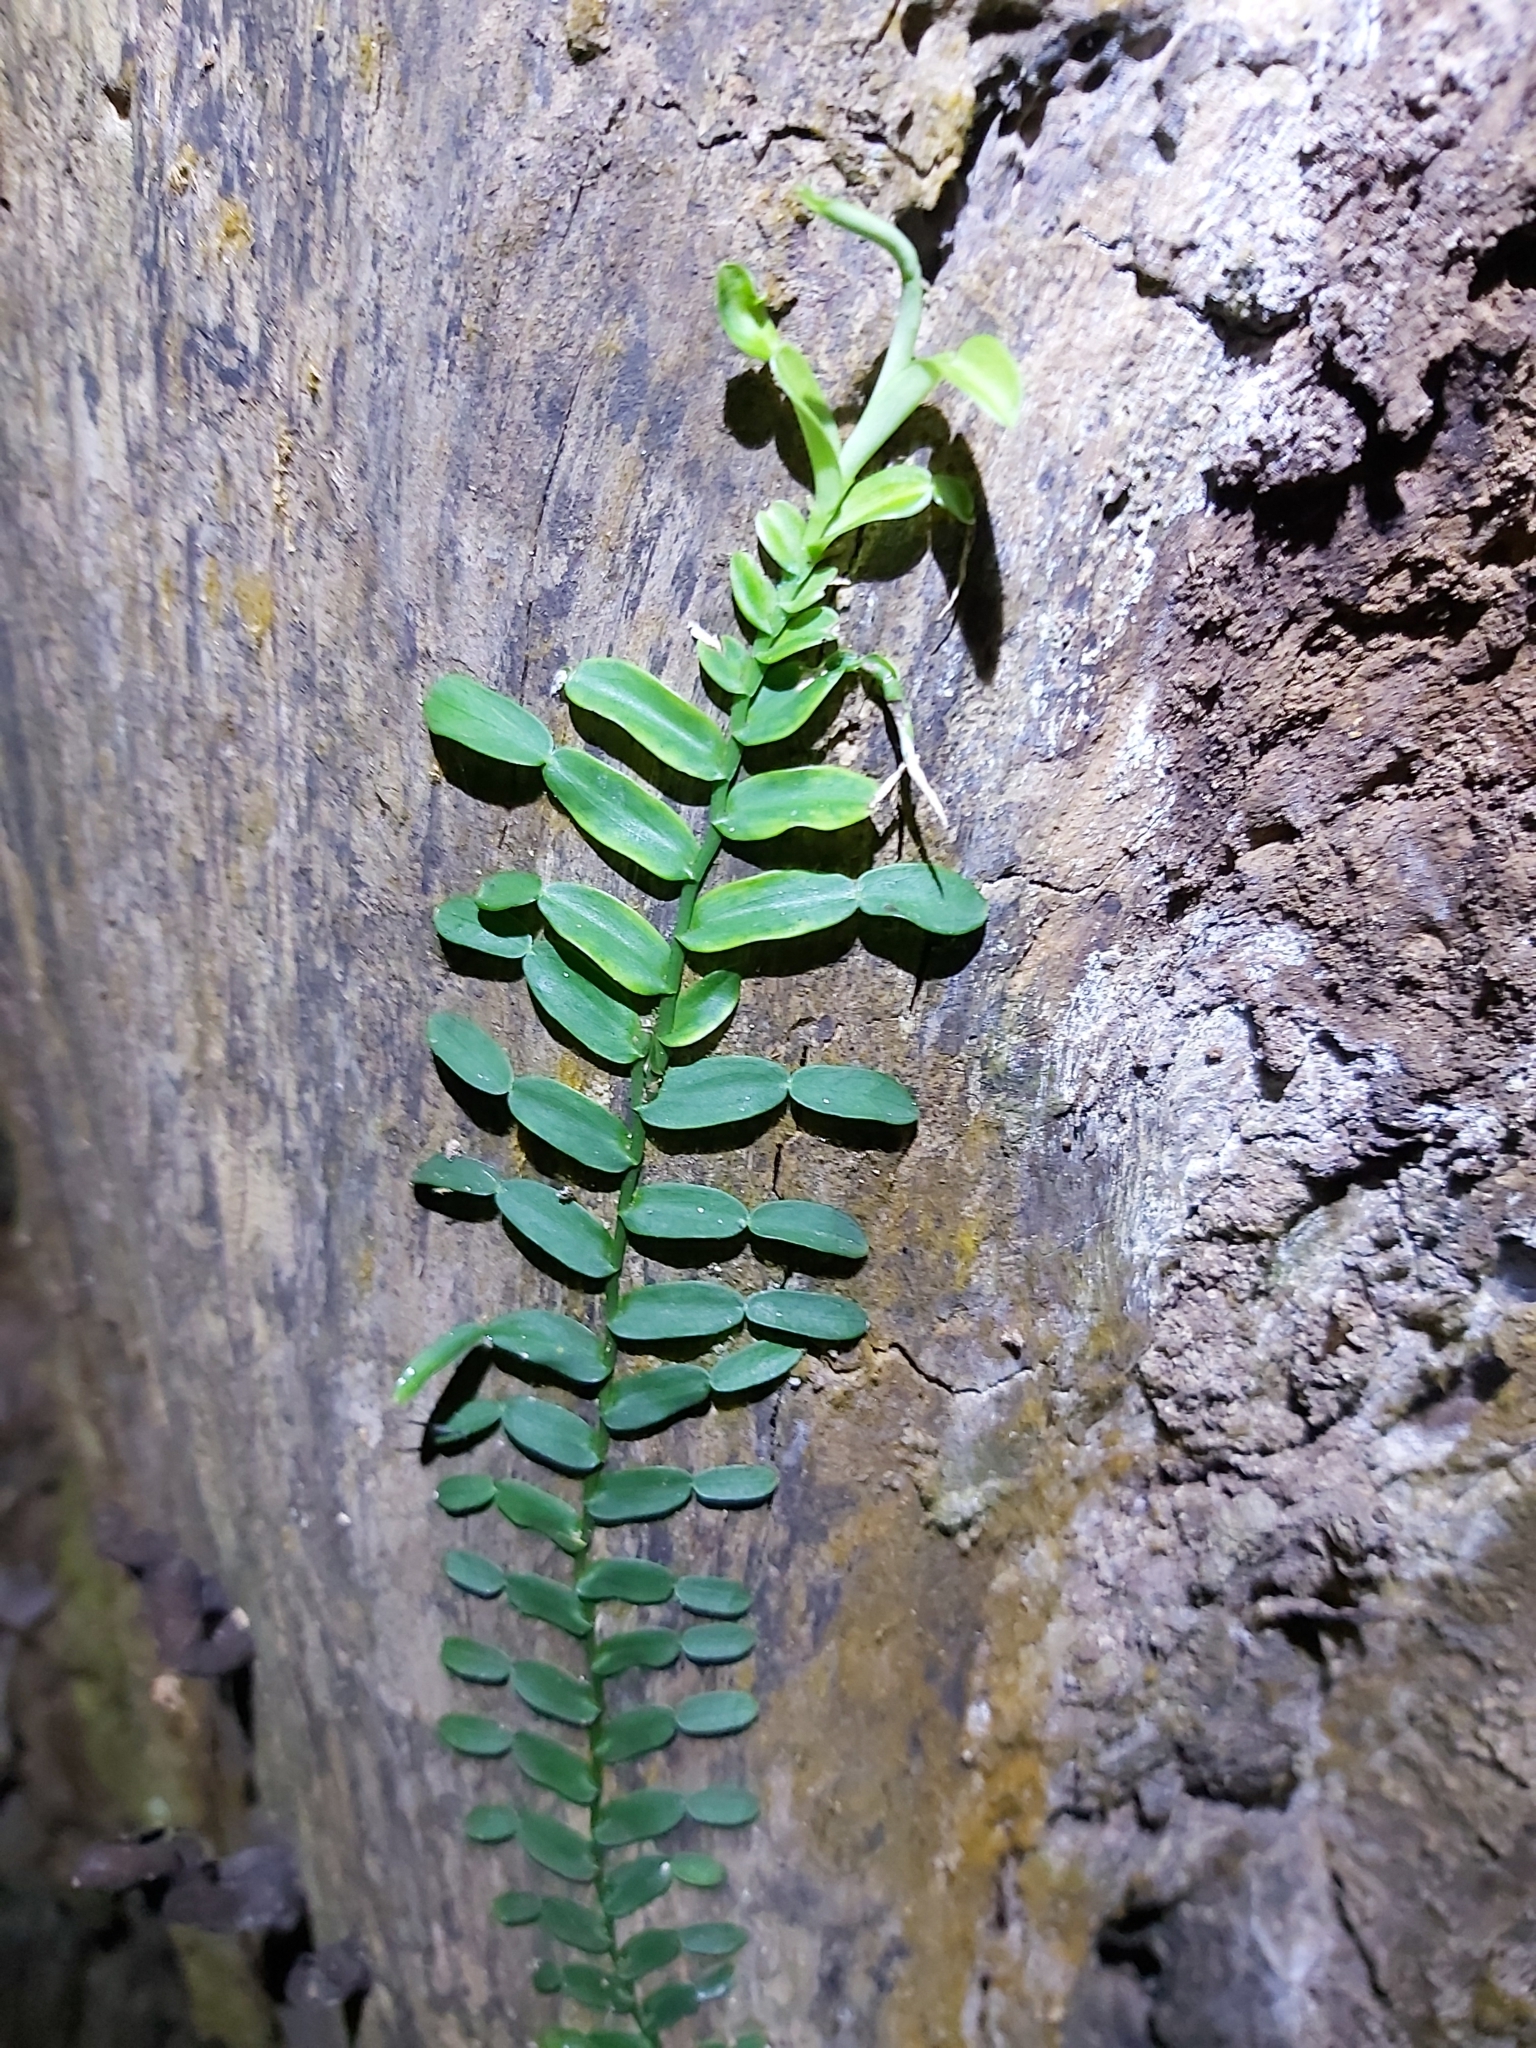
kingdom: Plantae
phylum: Tracheophyta
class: Liliopsida
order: Alismatales
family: Araceae
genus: Pothos
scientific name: Pothos longipes
